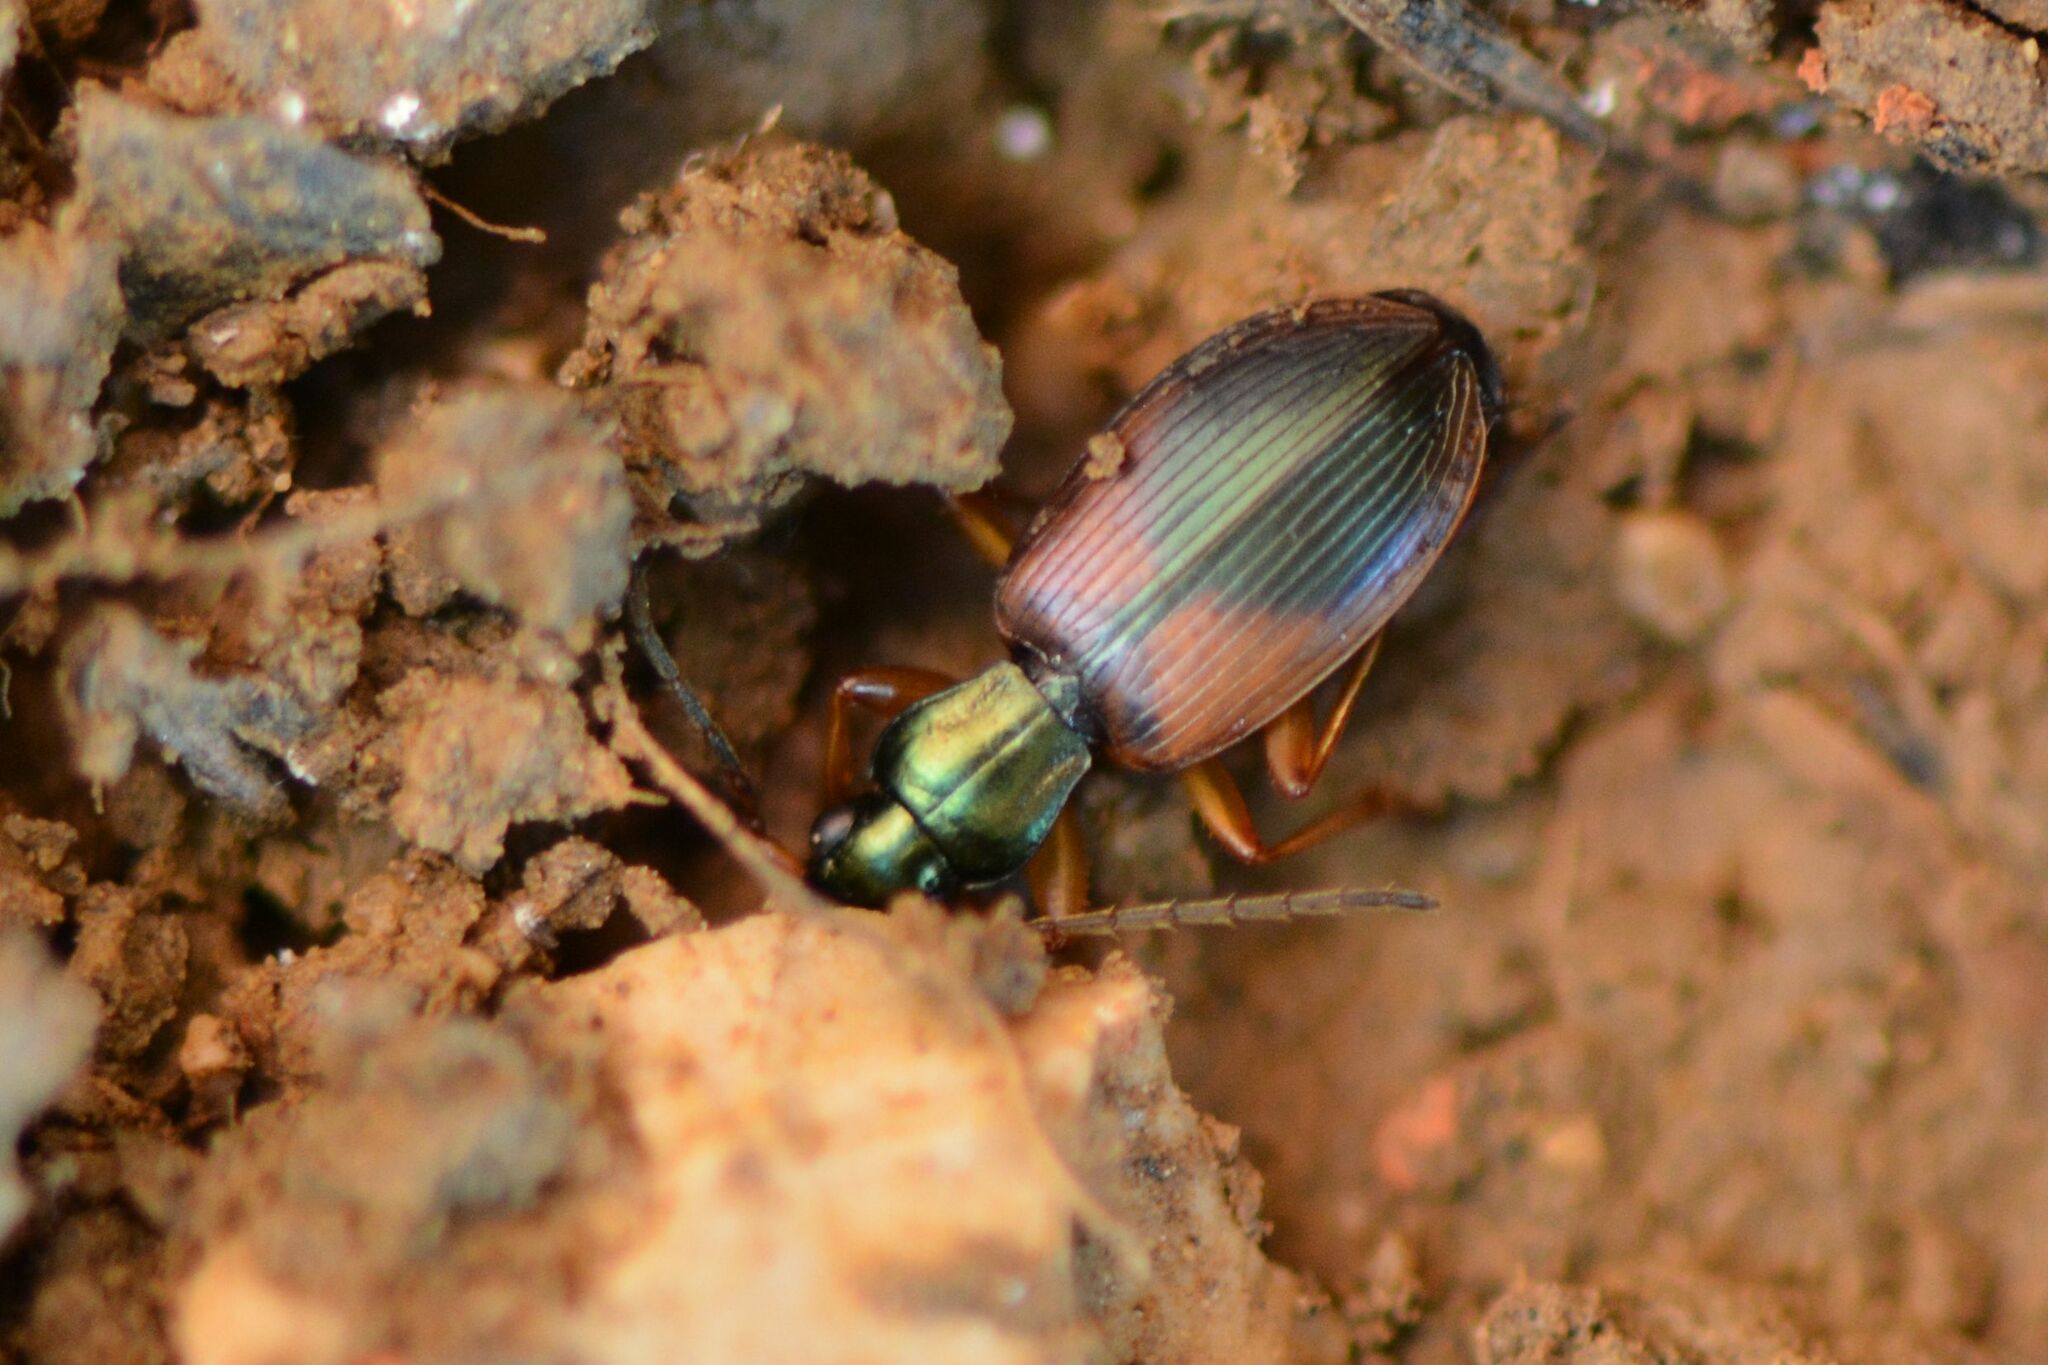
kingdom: Animalia
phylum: Arthropoda
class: Insecta
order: Coleoptera
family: Carabidae
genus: Anchomenus
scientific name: Anchomenus dorsalis
